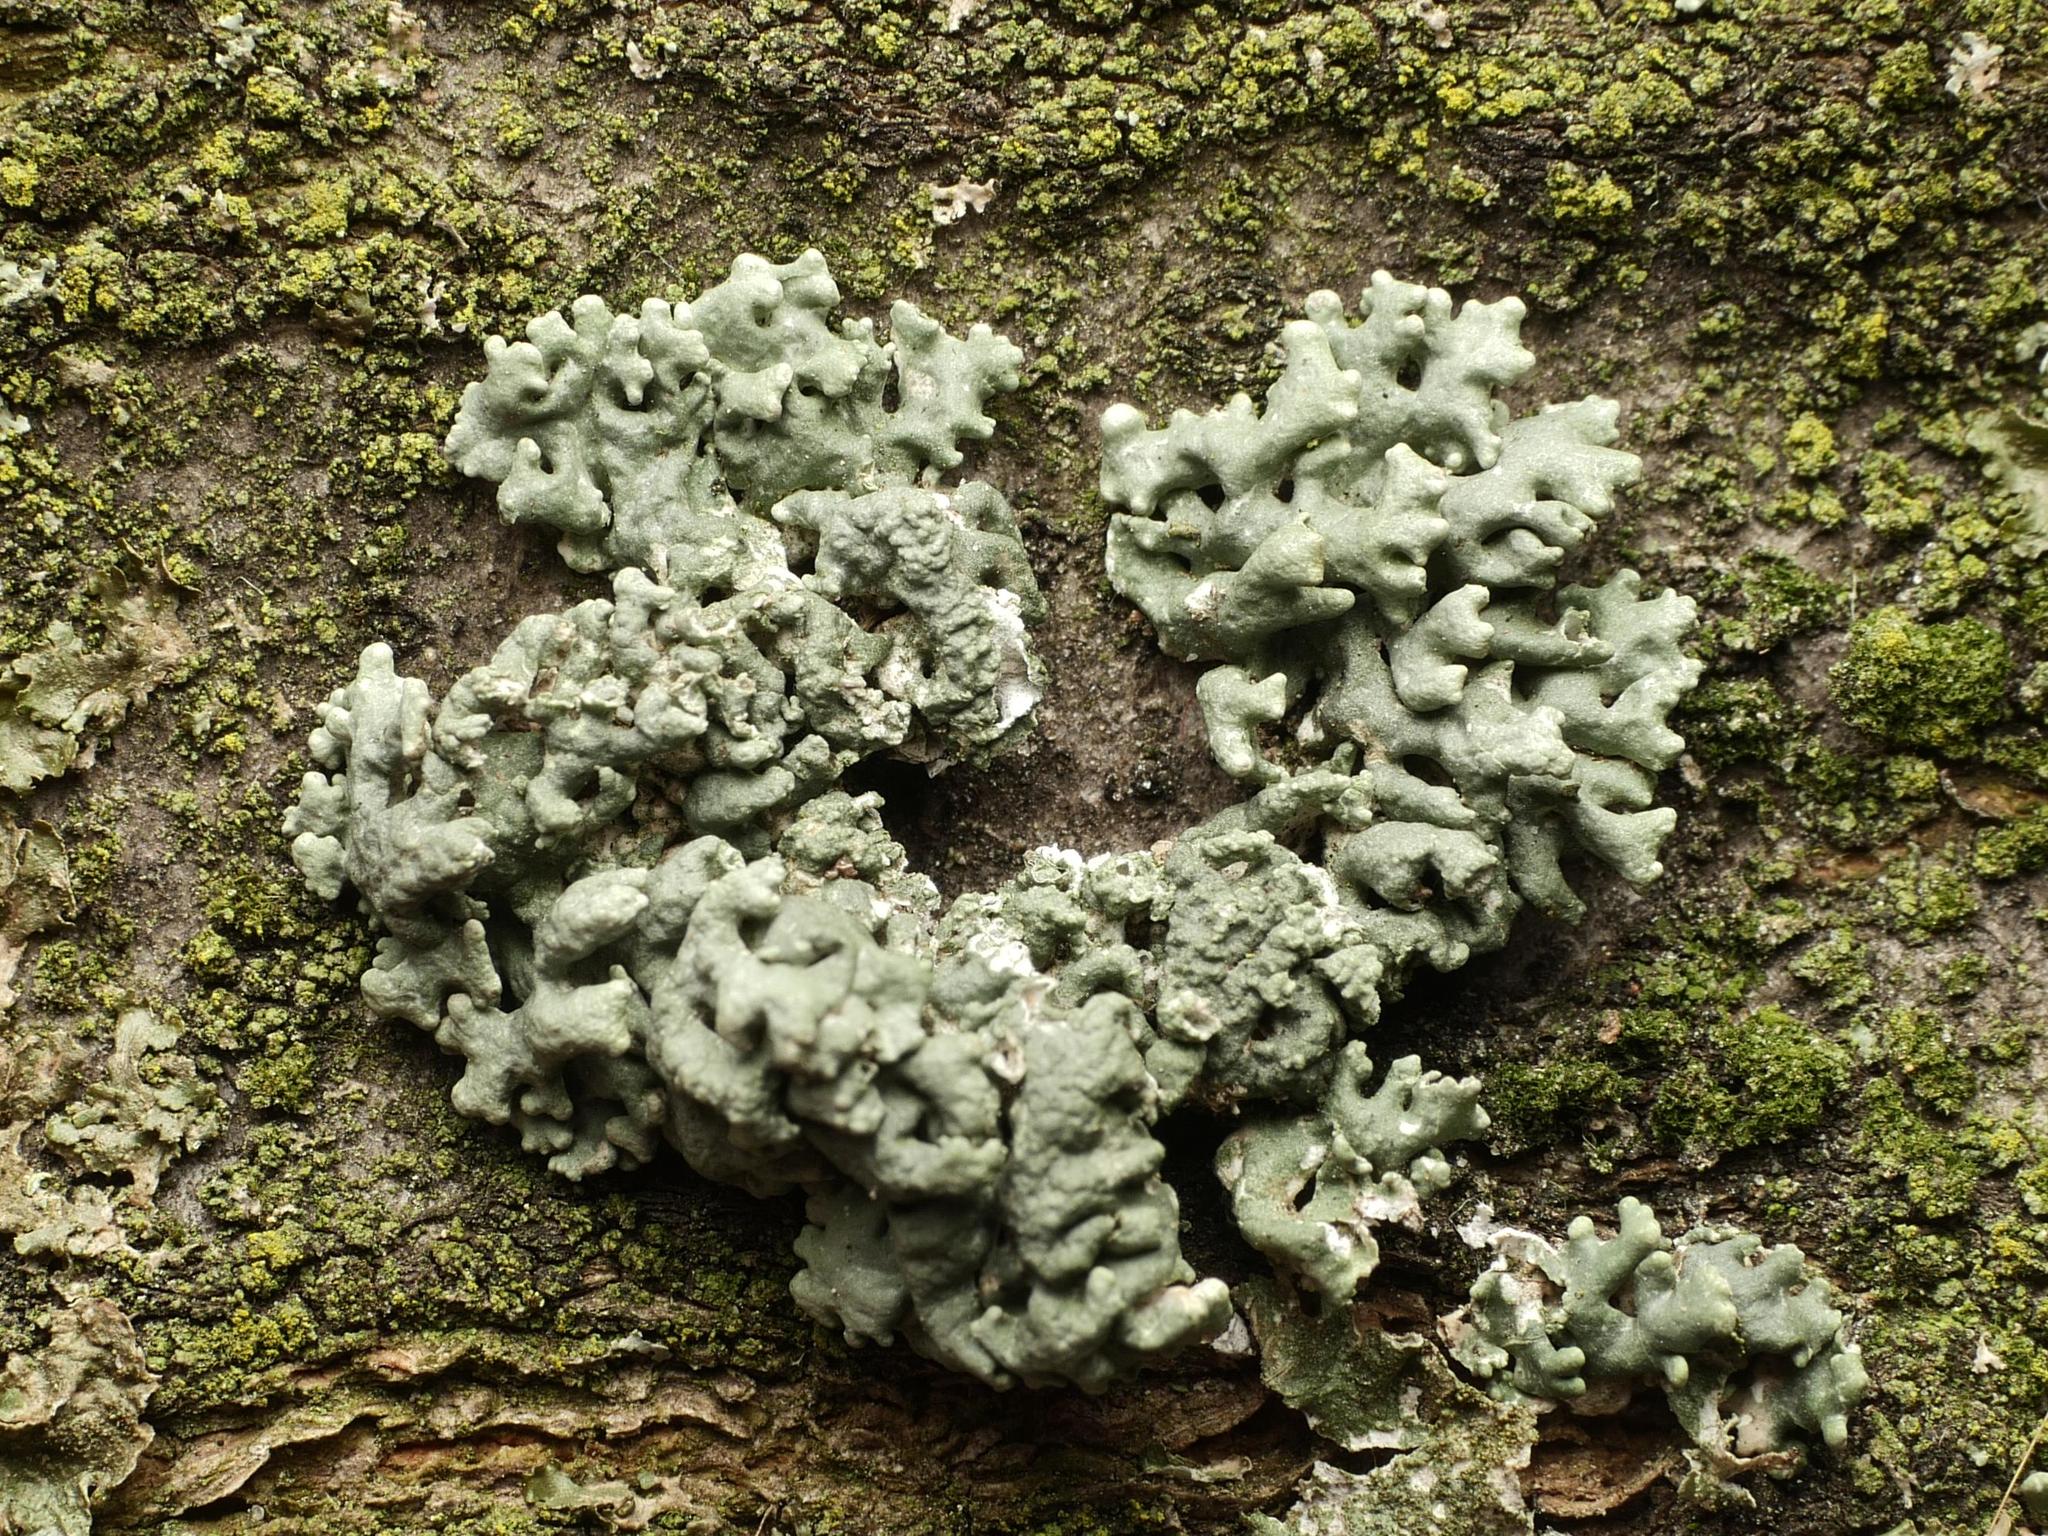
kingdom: Fungi
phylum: Ascomycota
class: Lecanoromycetes
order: Lecanorales
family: Parmeliaceae
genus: Hypogymnia
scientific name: Hypogymnia tubulosa
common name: Powder-headed tube lichen
